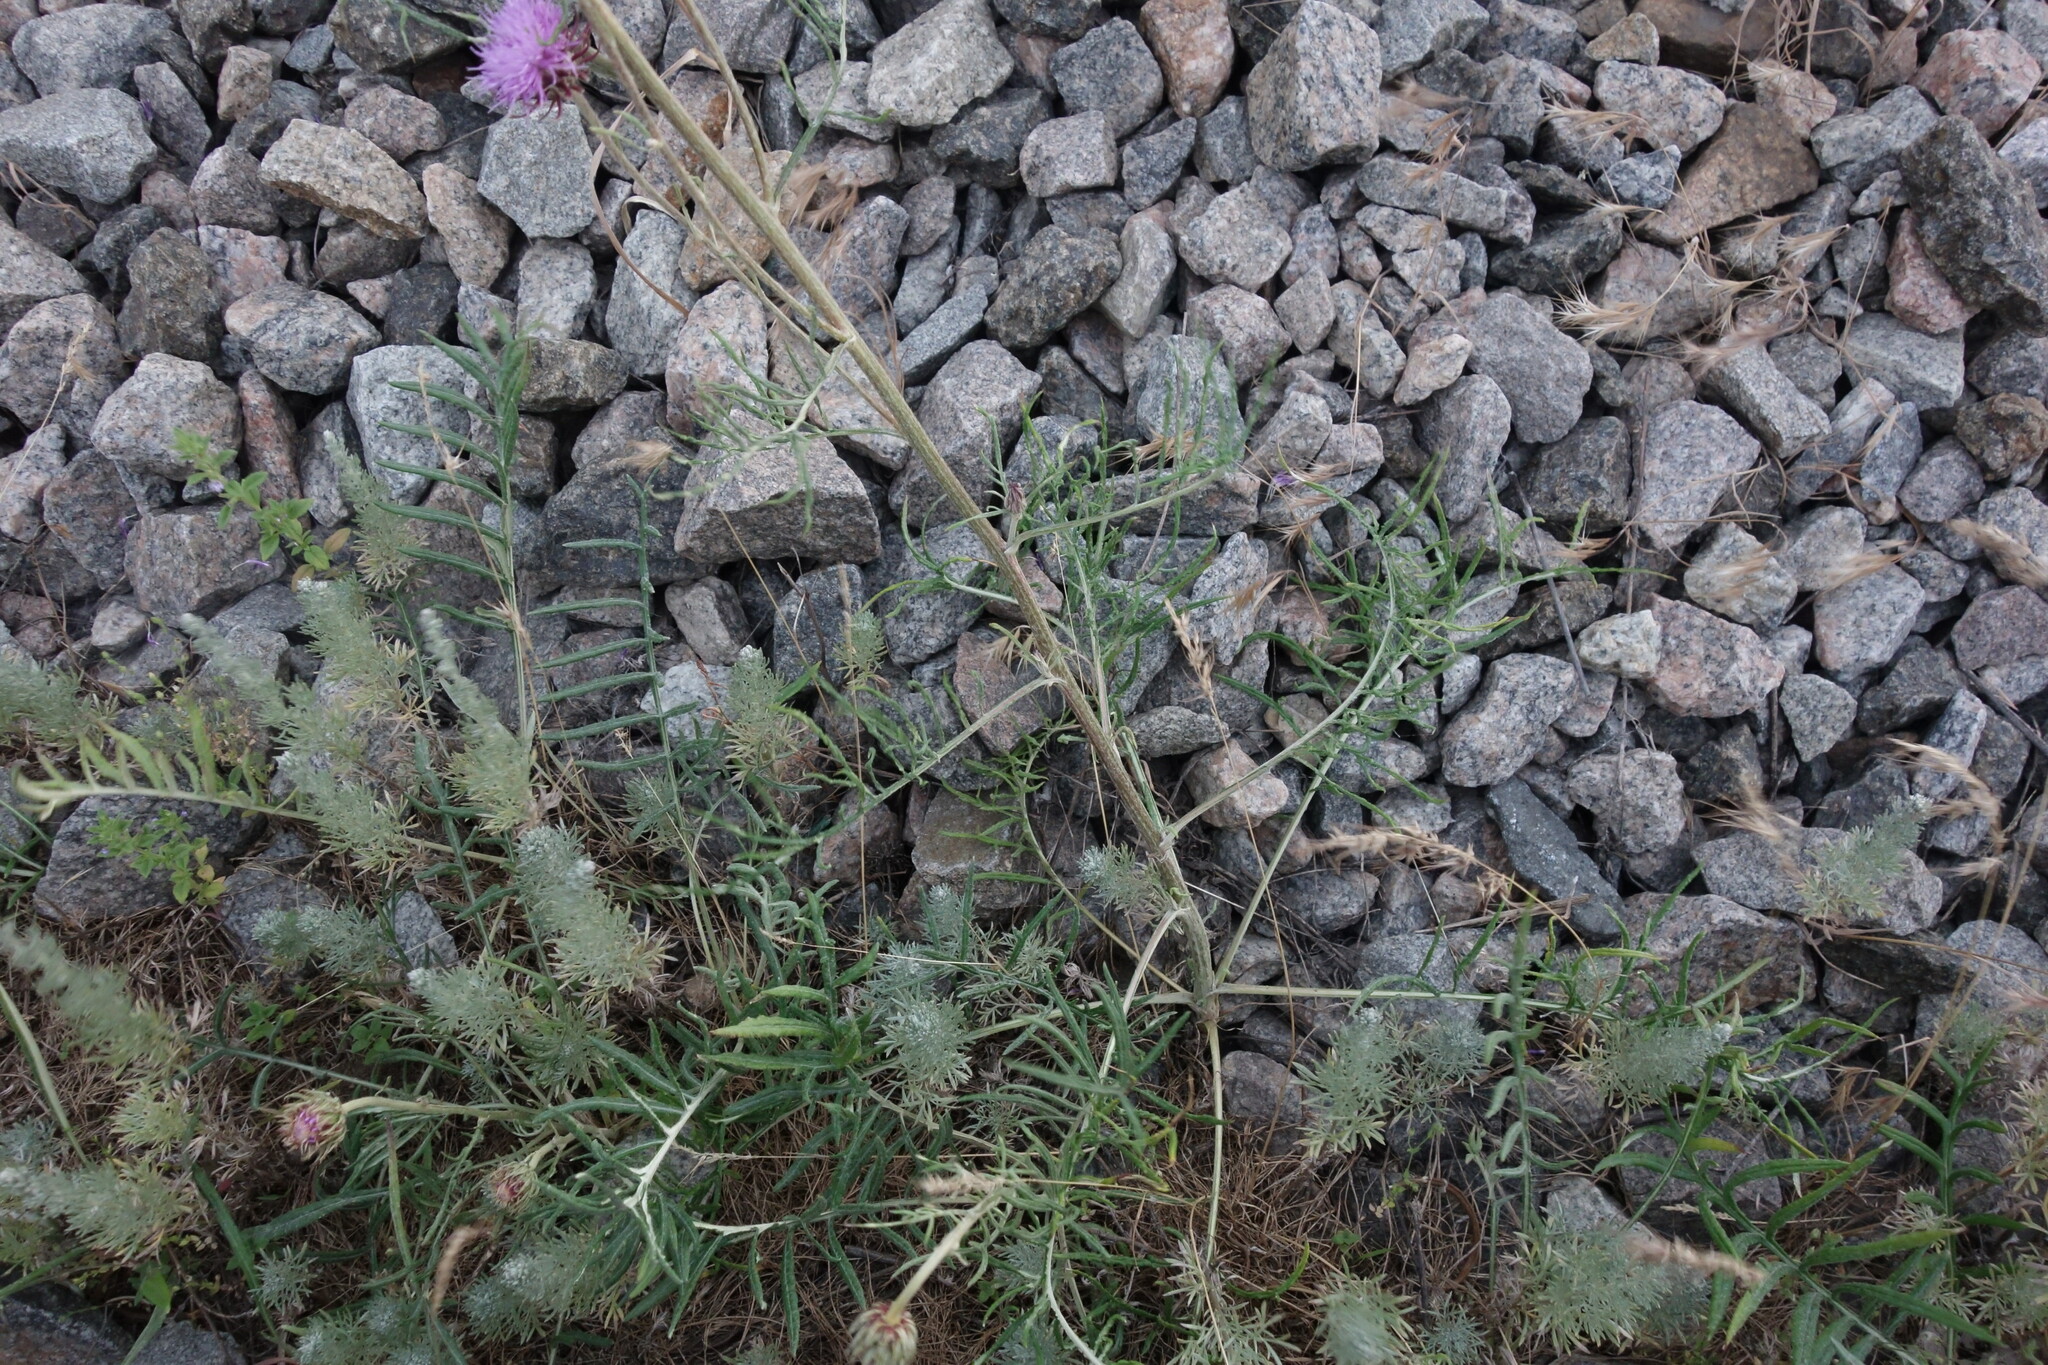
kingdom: Plantae
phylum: Tracheophyta
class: Magnoliopsida
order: Asterales
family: Asteraceae
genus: Jurinea
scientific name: Jurinea cyanoides
